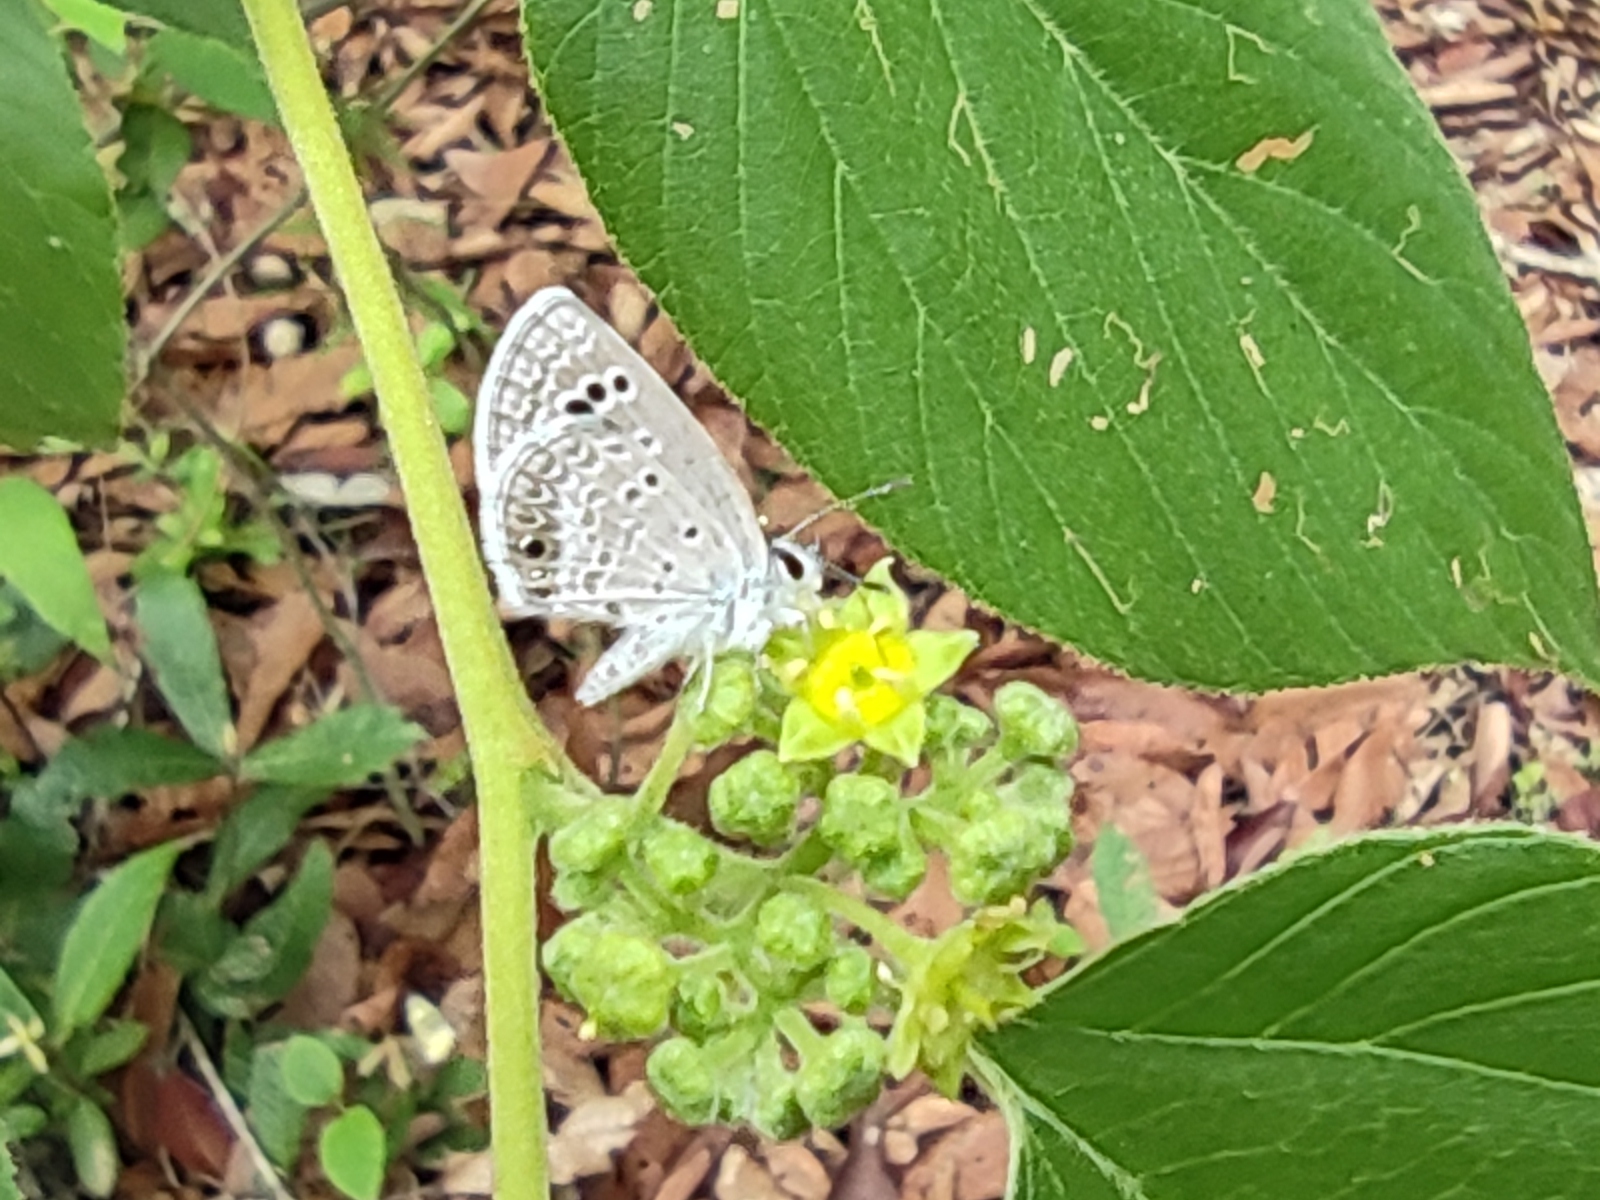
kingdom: Animalia
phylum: Arthropoda
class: Insecta
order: Lepidoptera
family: Lycaenidae
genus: Echinargus
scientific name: Echinargus isola
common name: Reakirt's blue
